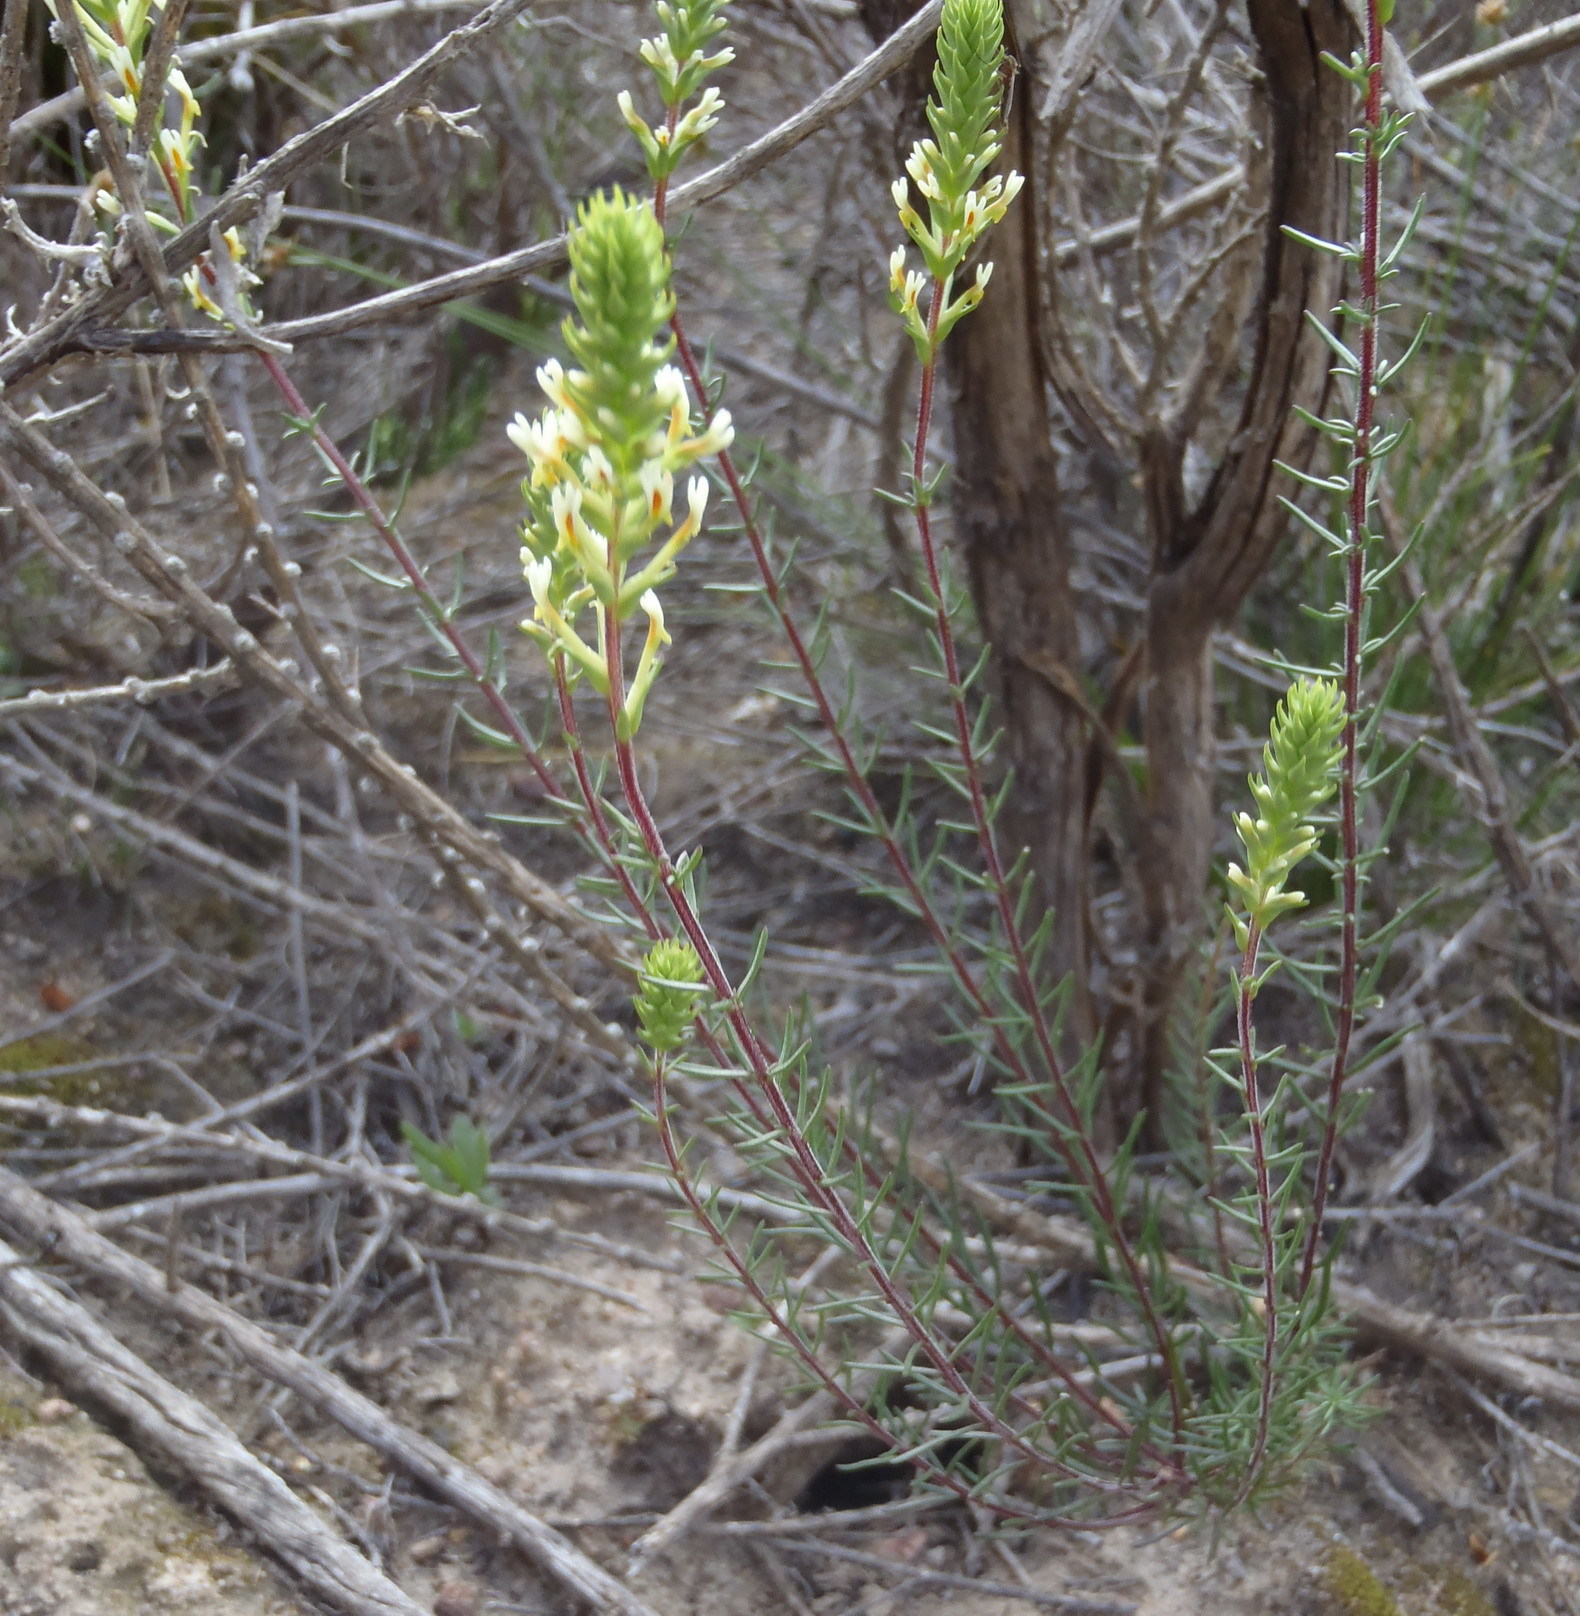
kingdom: Plantae
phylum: Tracheophyta
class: Magnoliopsida
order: Lamiales
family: Scrophulariaceae
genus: Hebenstretia
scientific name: Hebenstretia integrifolia
